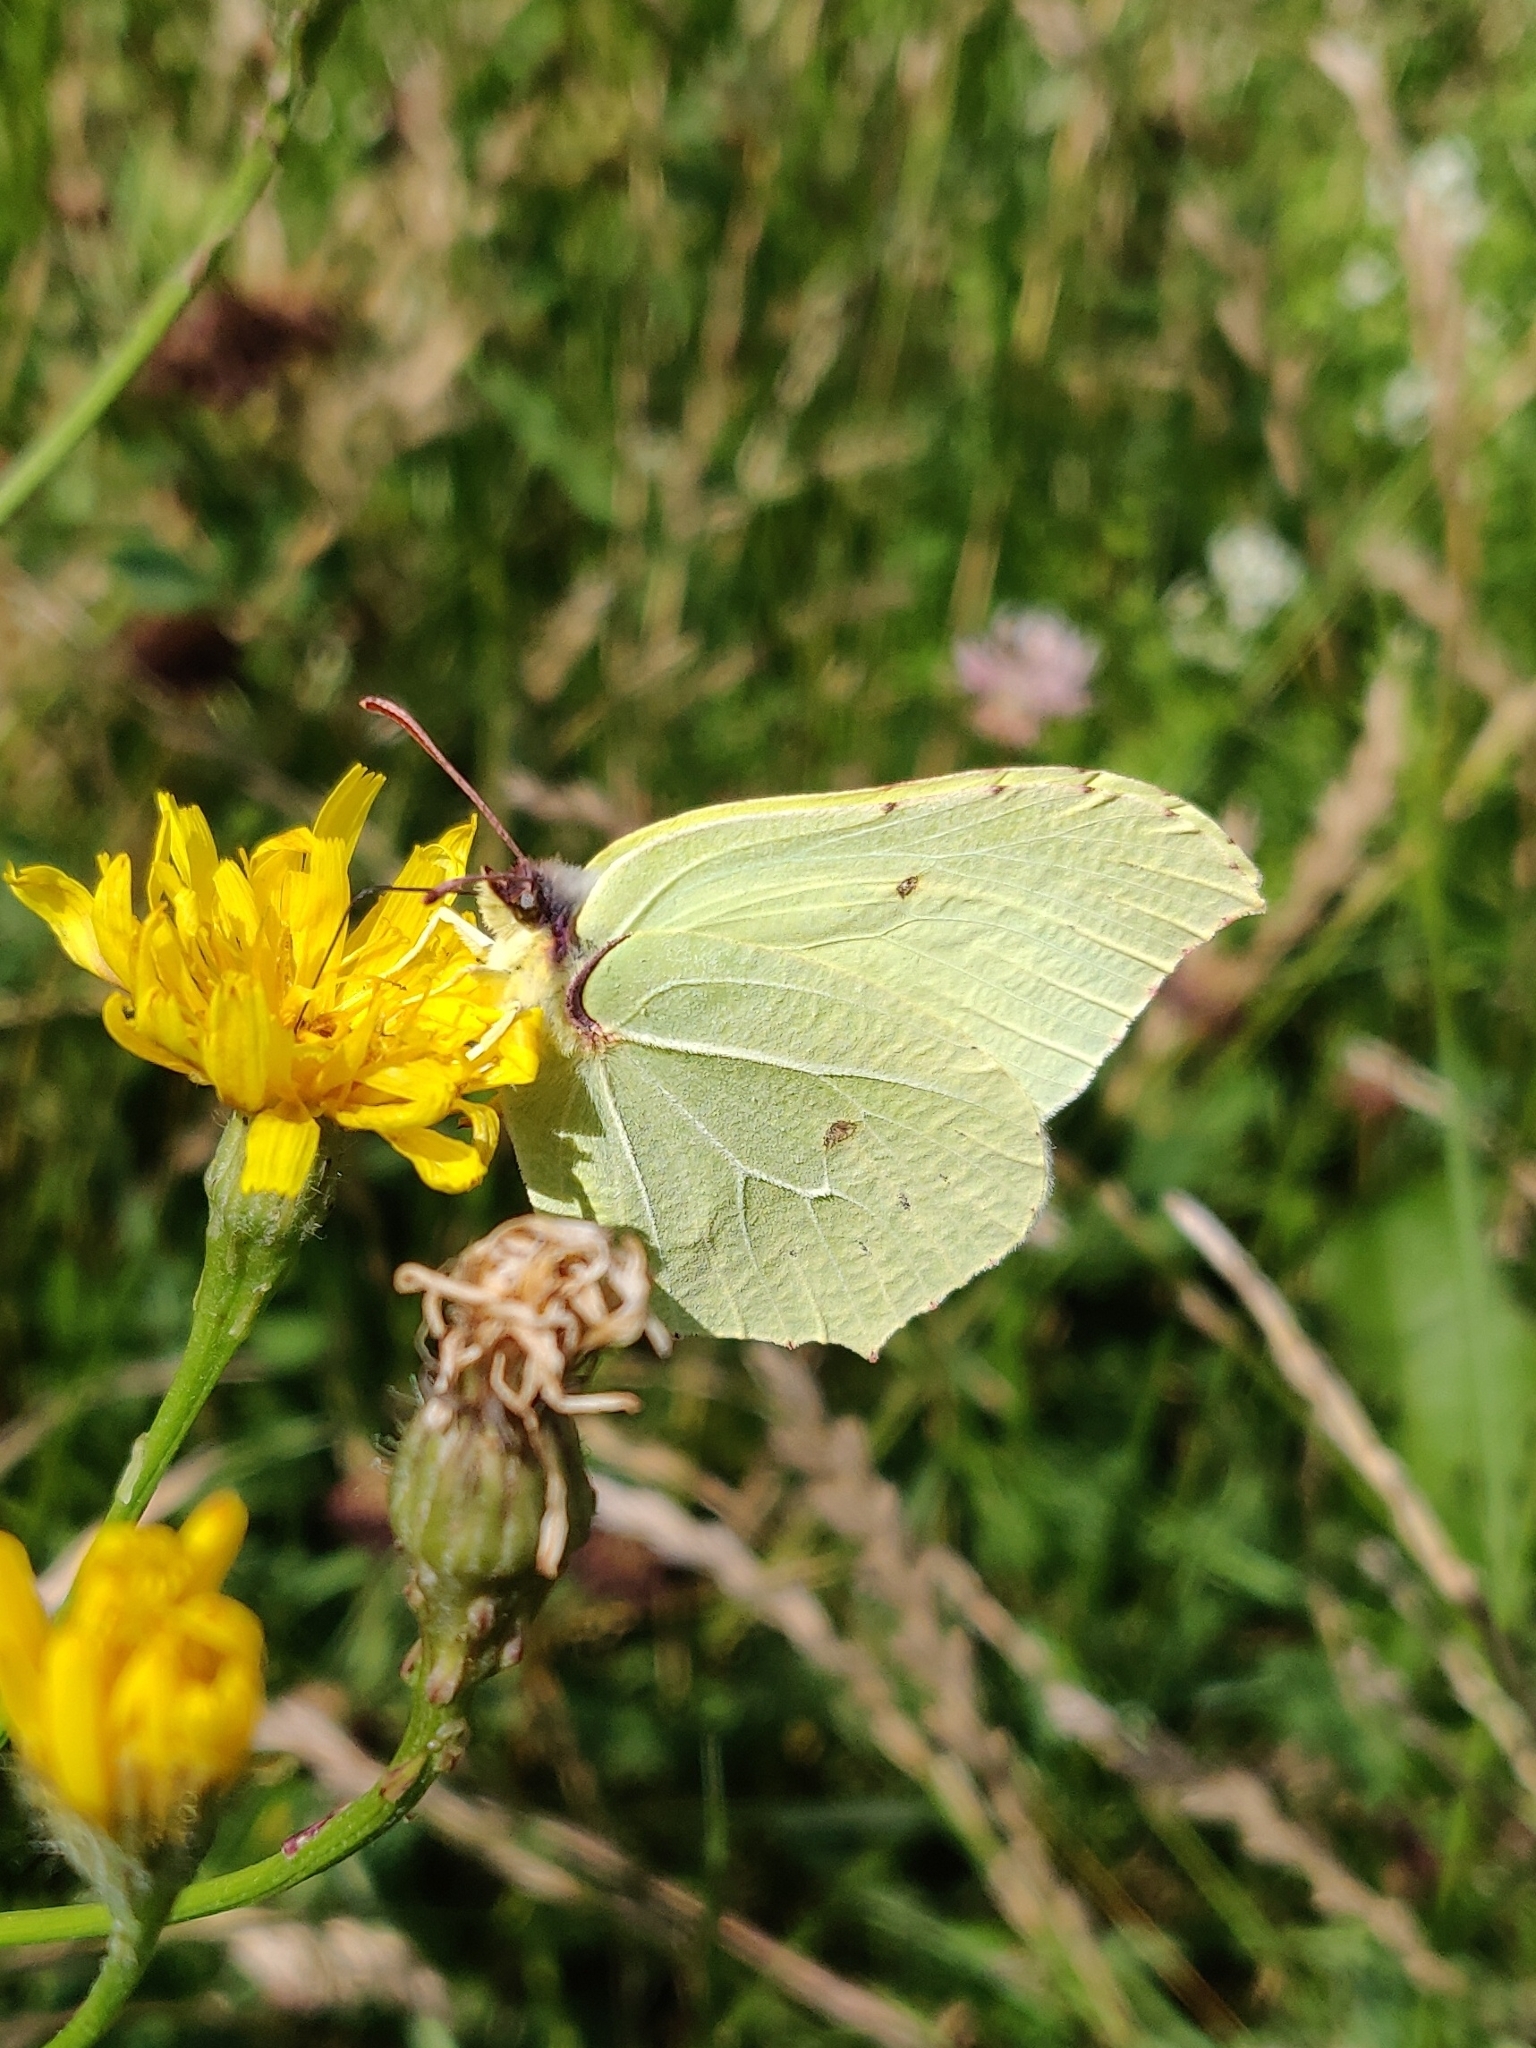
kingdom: Animalia
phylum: Arthropoda
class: Insecta
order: Lepidoptera
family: Pieridae
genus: Gonepteryx
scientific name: Gonepteryx rhamni
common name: Brimstone
